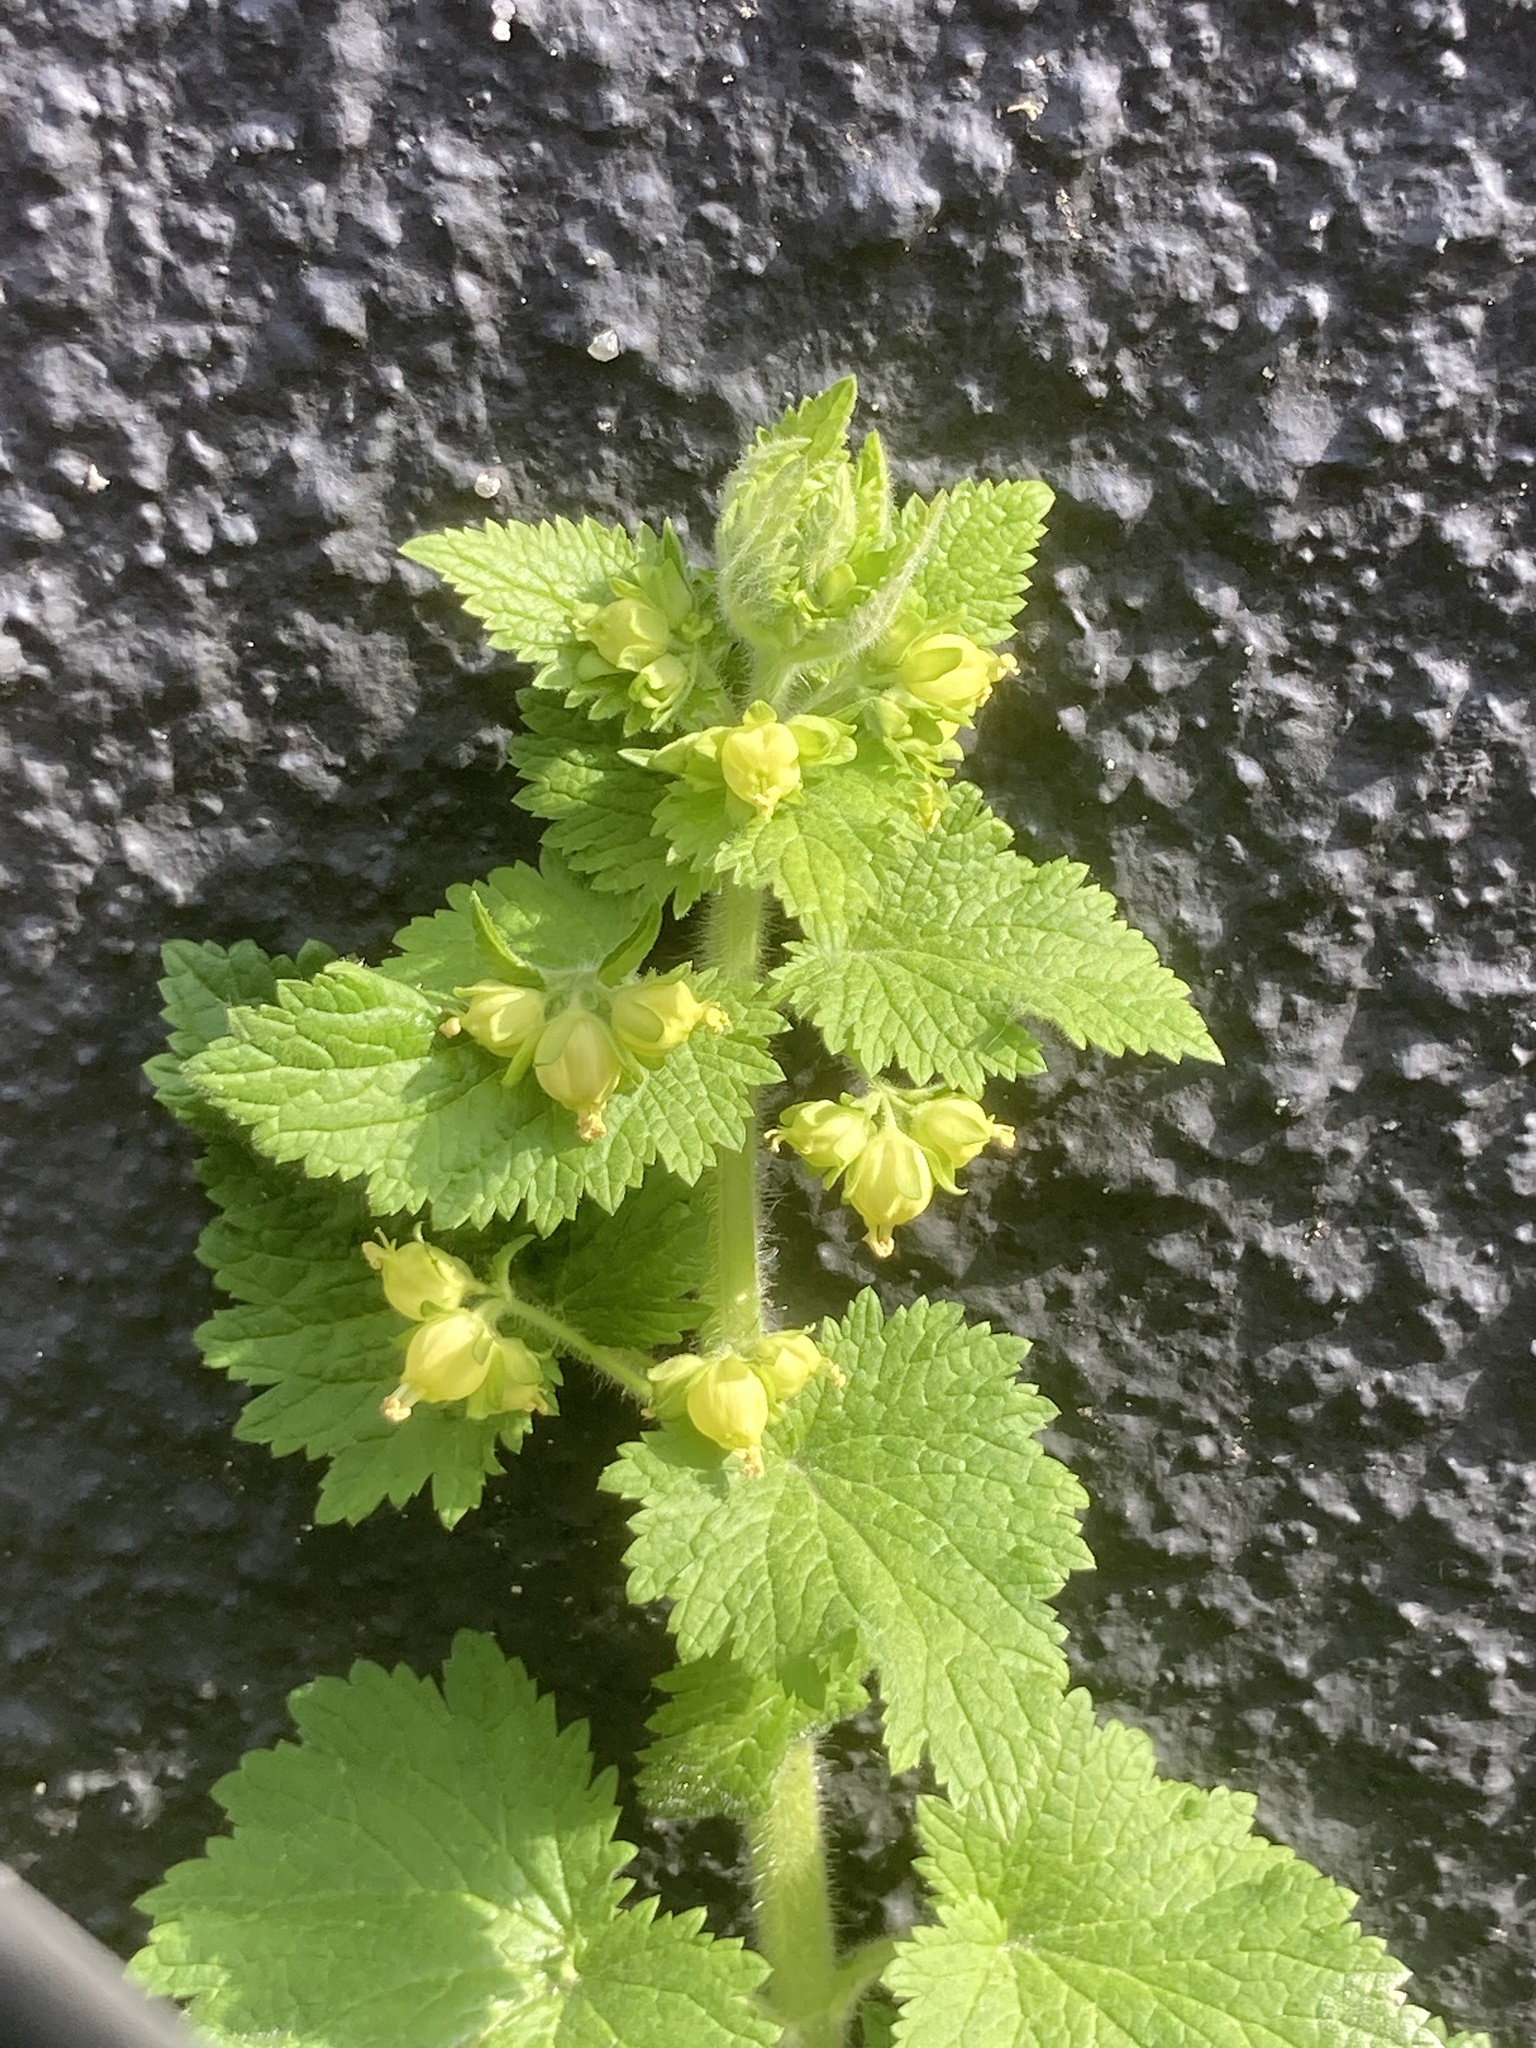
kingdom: Plantae
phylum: Tracheophyta
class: Magnoliopsida
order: Lamiales
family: Scrophulariaceae
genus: Scrophularia
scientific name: Scrophularia vernalis
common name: Yellow figwort
